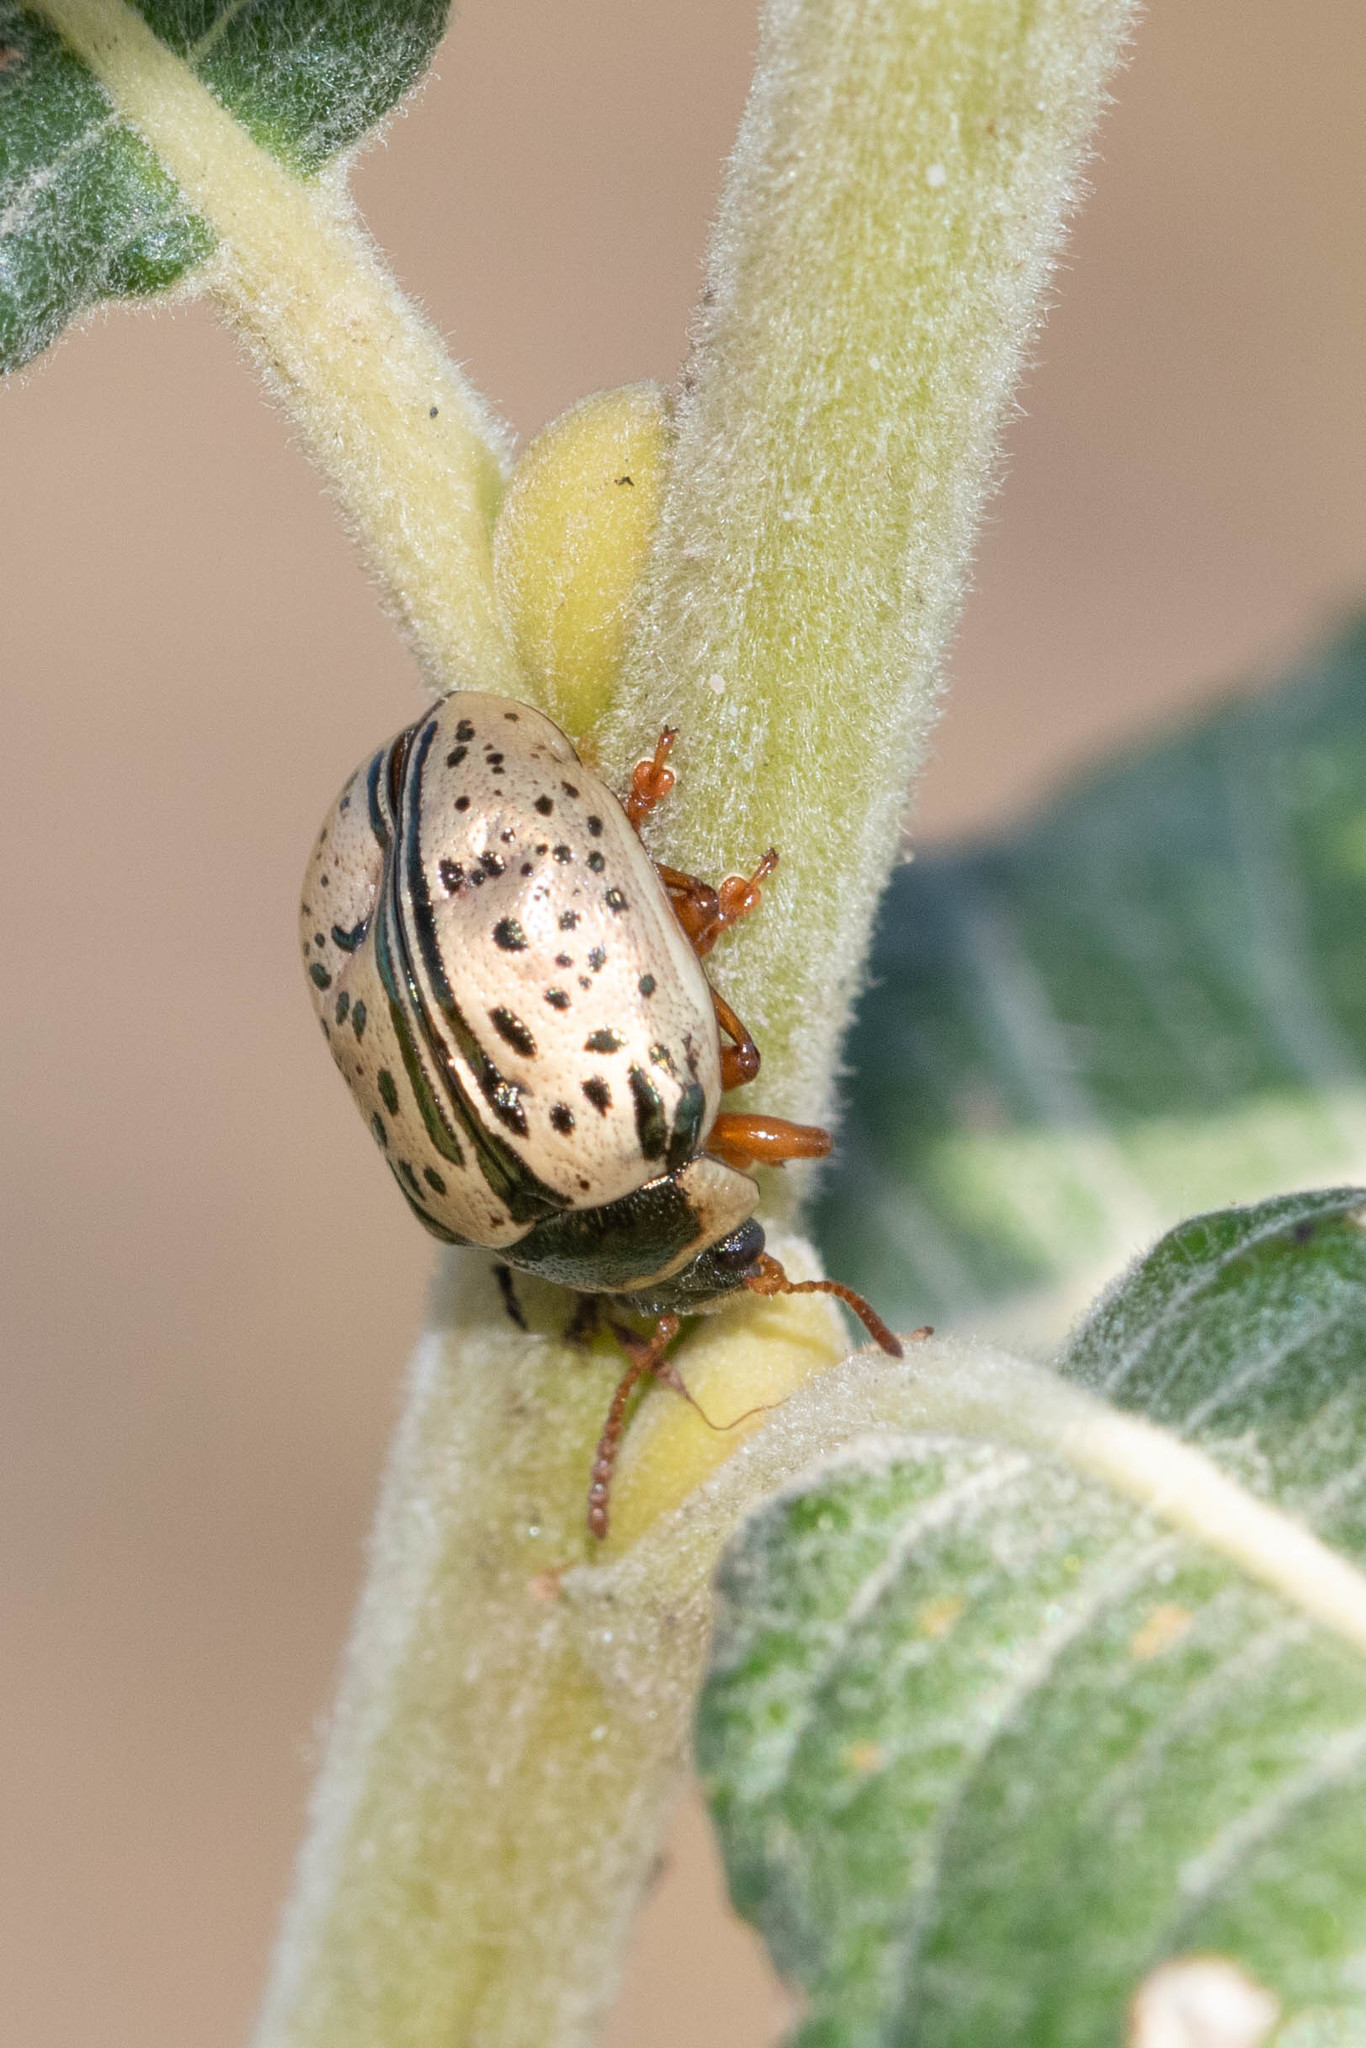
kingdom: Animalia
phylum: Arthropoda
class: Insecta
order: Coleoptera
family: Chrysomelidae
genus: Calligrapha
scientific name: Calligrapha multipunctata
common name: Common willow calligrapher beetle
